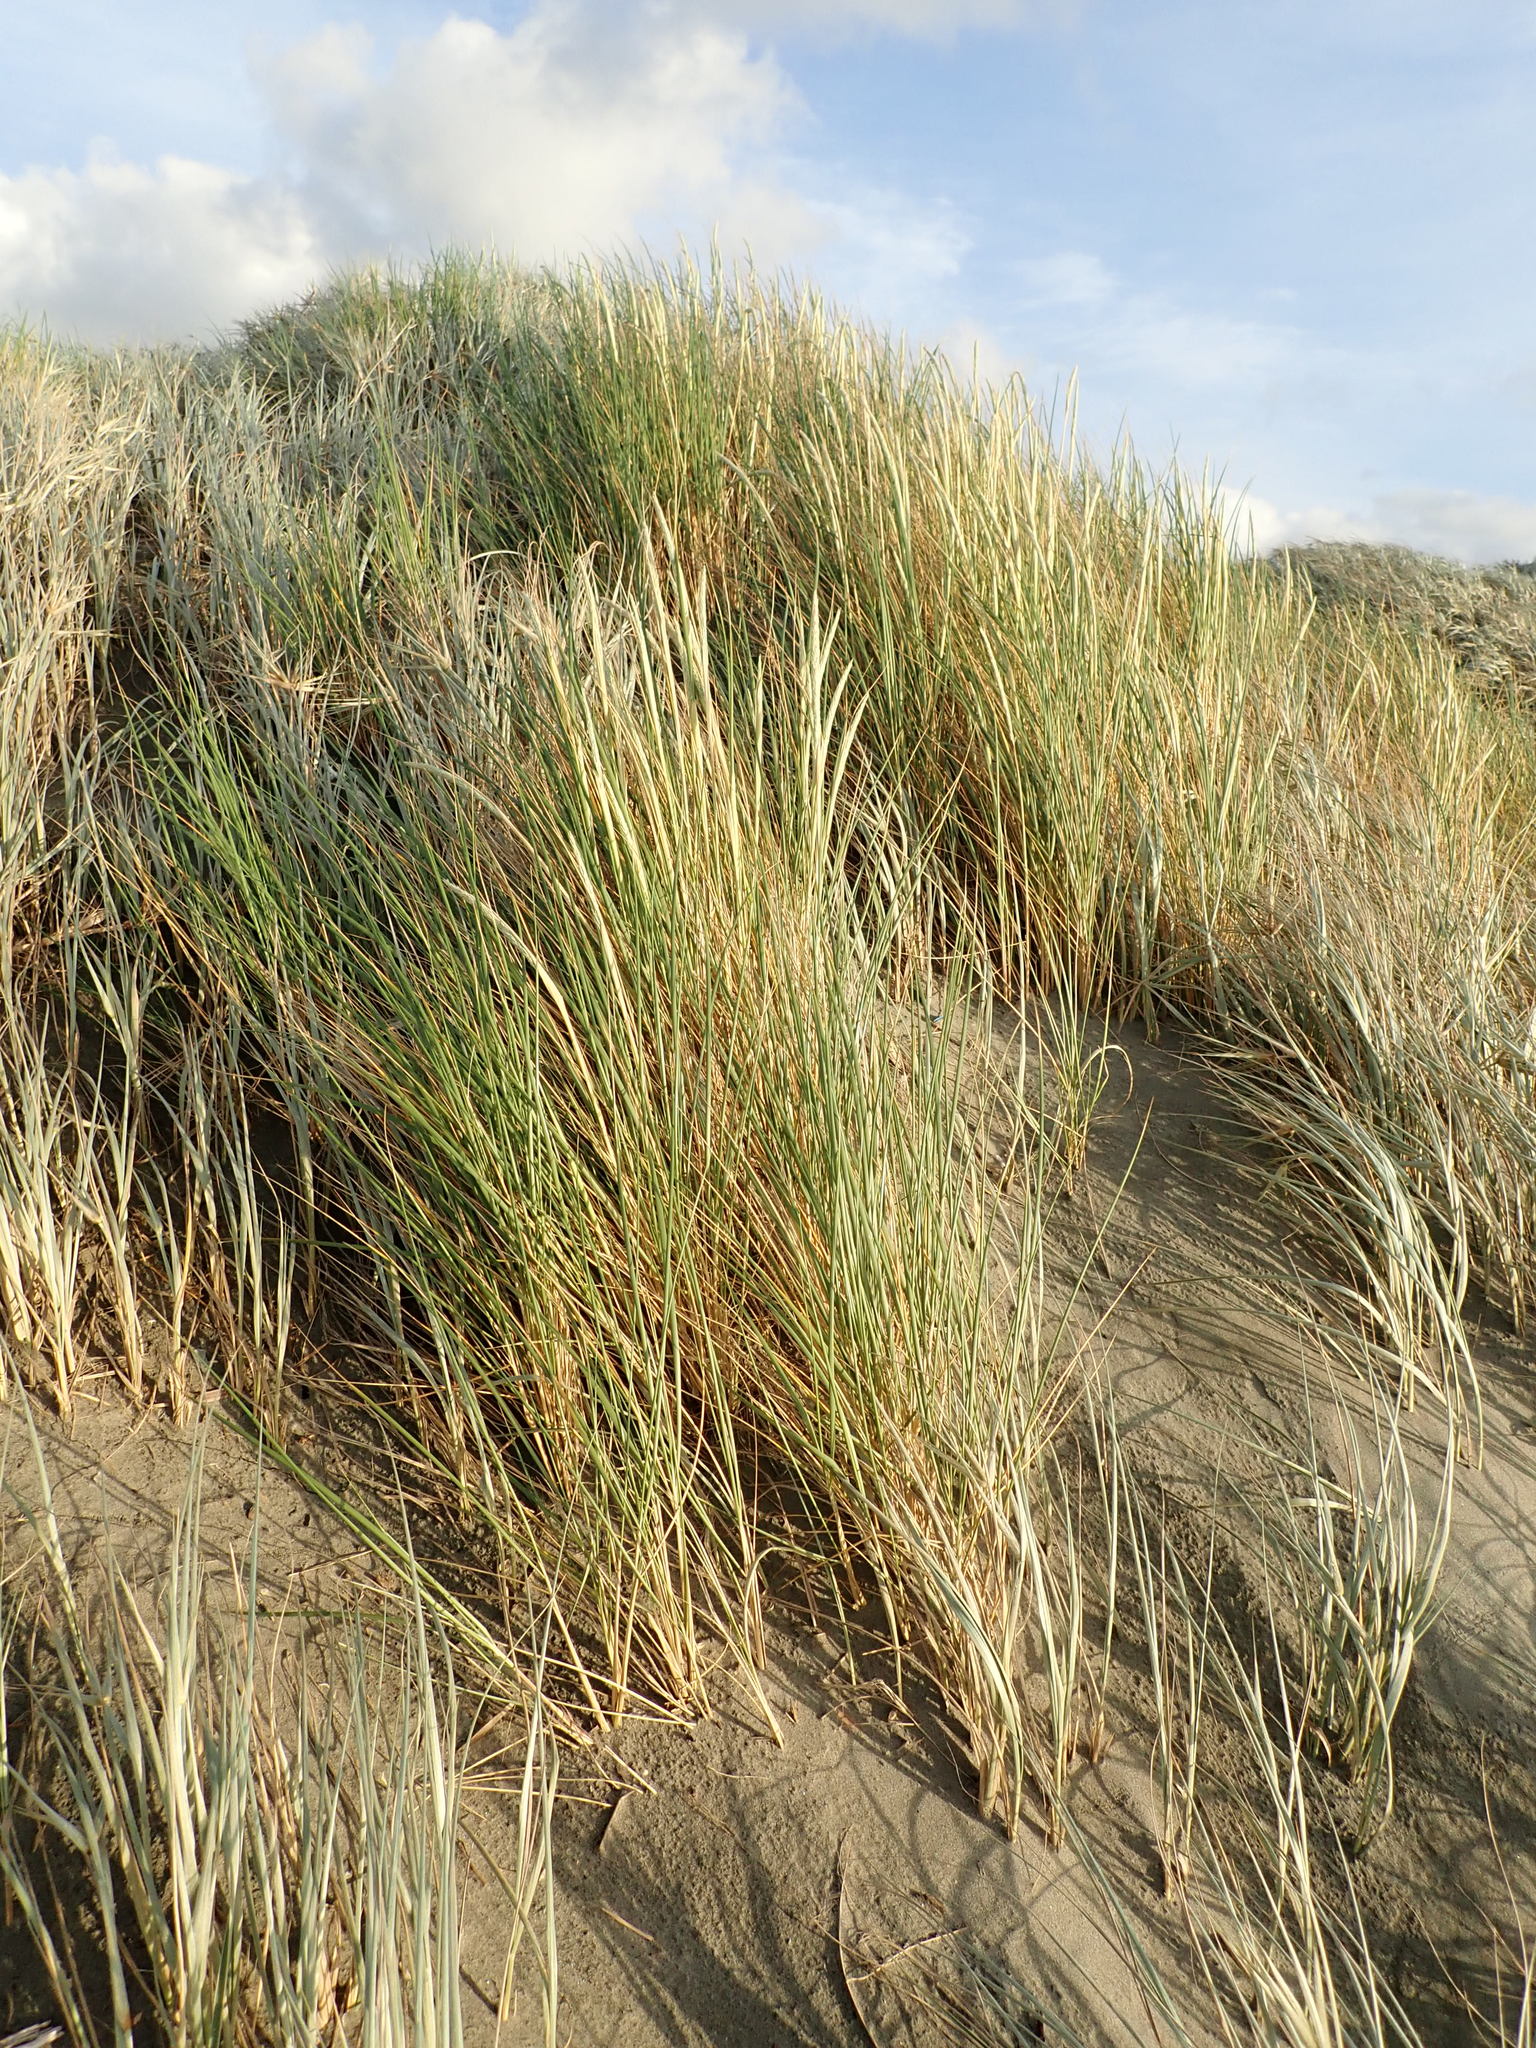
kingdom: Plantae
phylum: Tracheophyta
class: Liliopsida
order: Poales
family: Poaceae
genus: Calamagrostis
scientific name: Calamagrostis arenaria
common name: European beachgrass
